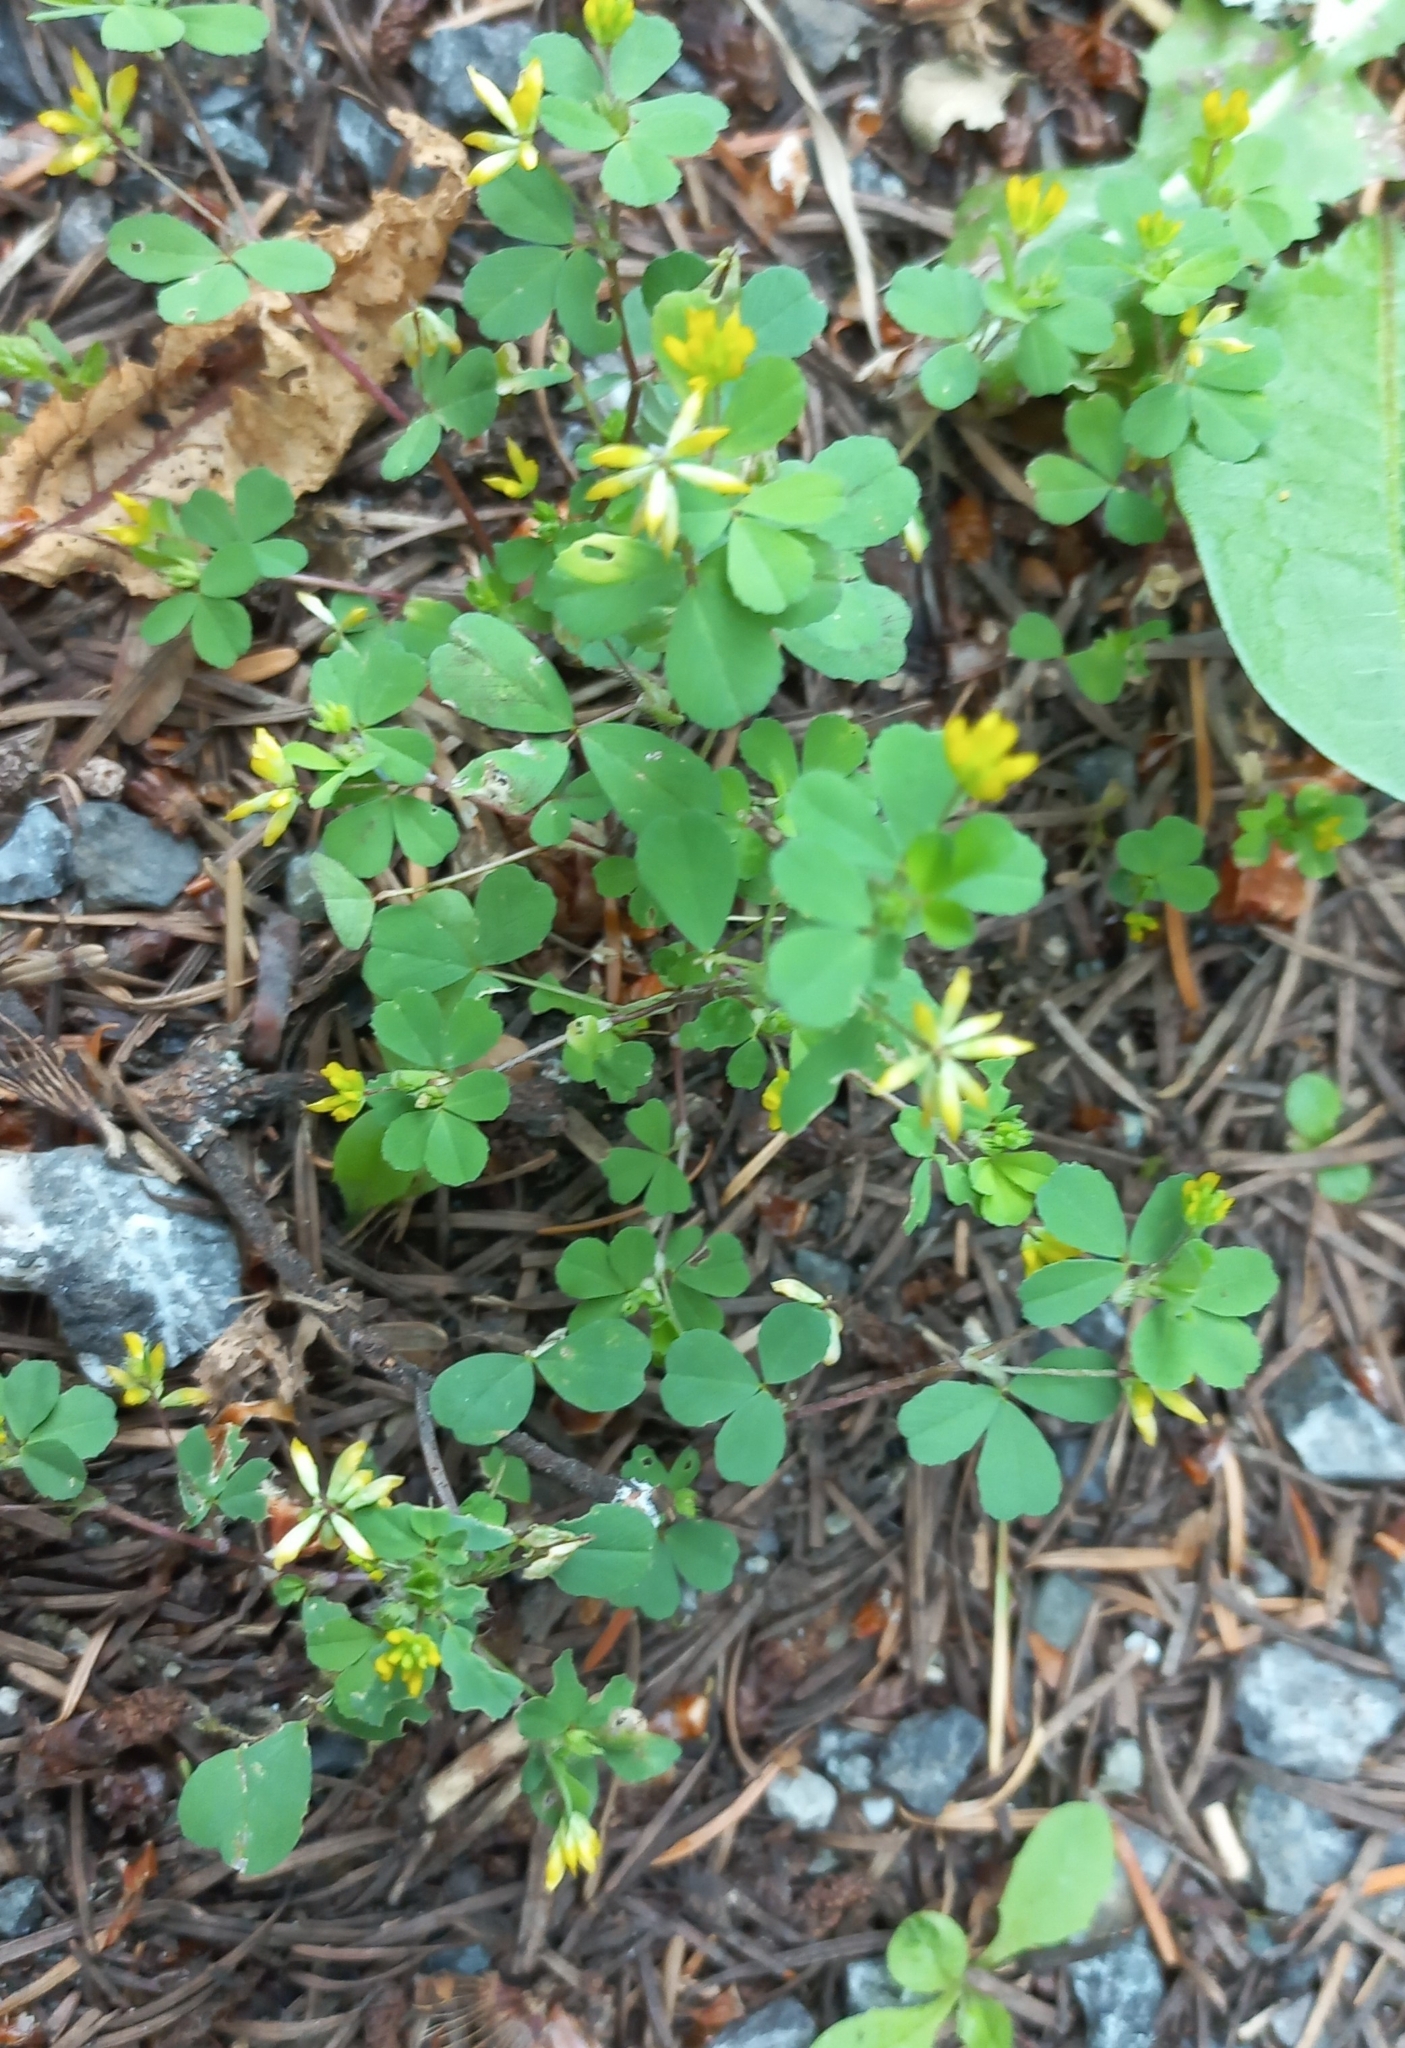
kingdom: Plantae
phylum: Tracheophyta
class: Magnoliopsida
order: Fabales
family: Fabaceae
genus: Trifolium
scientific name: Trifolium dubium
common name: Suckling clover
